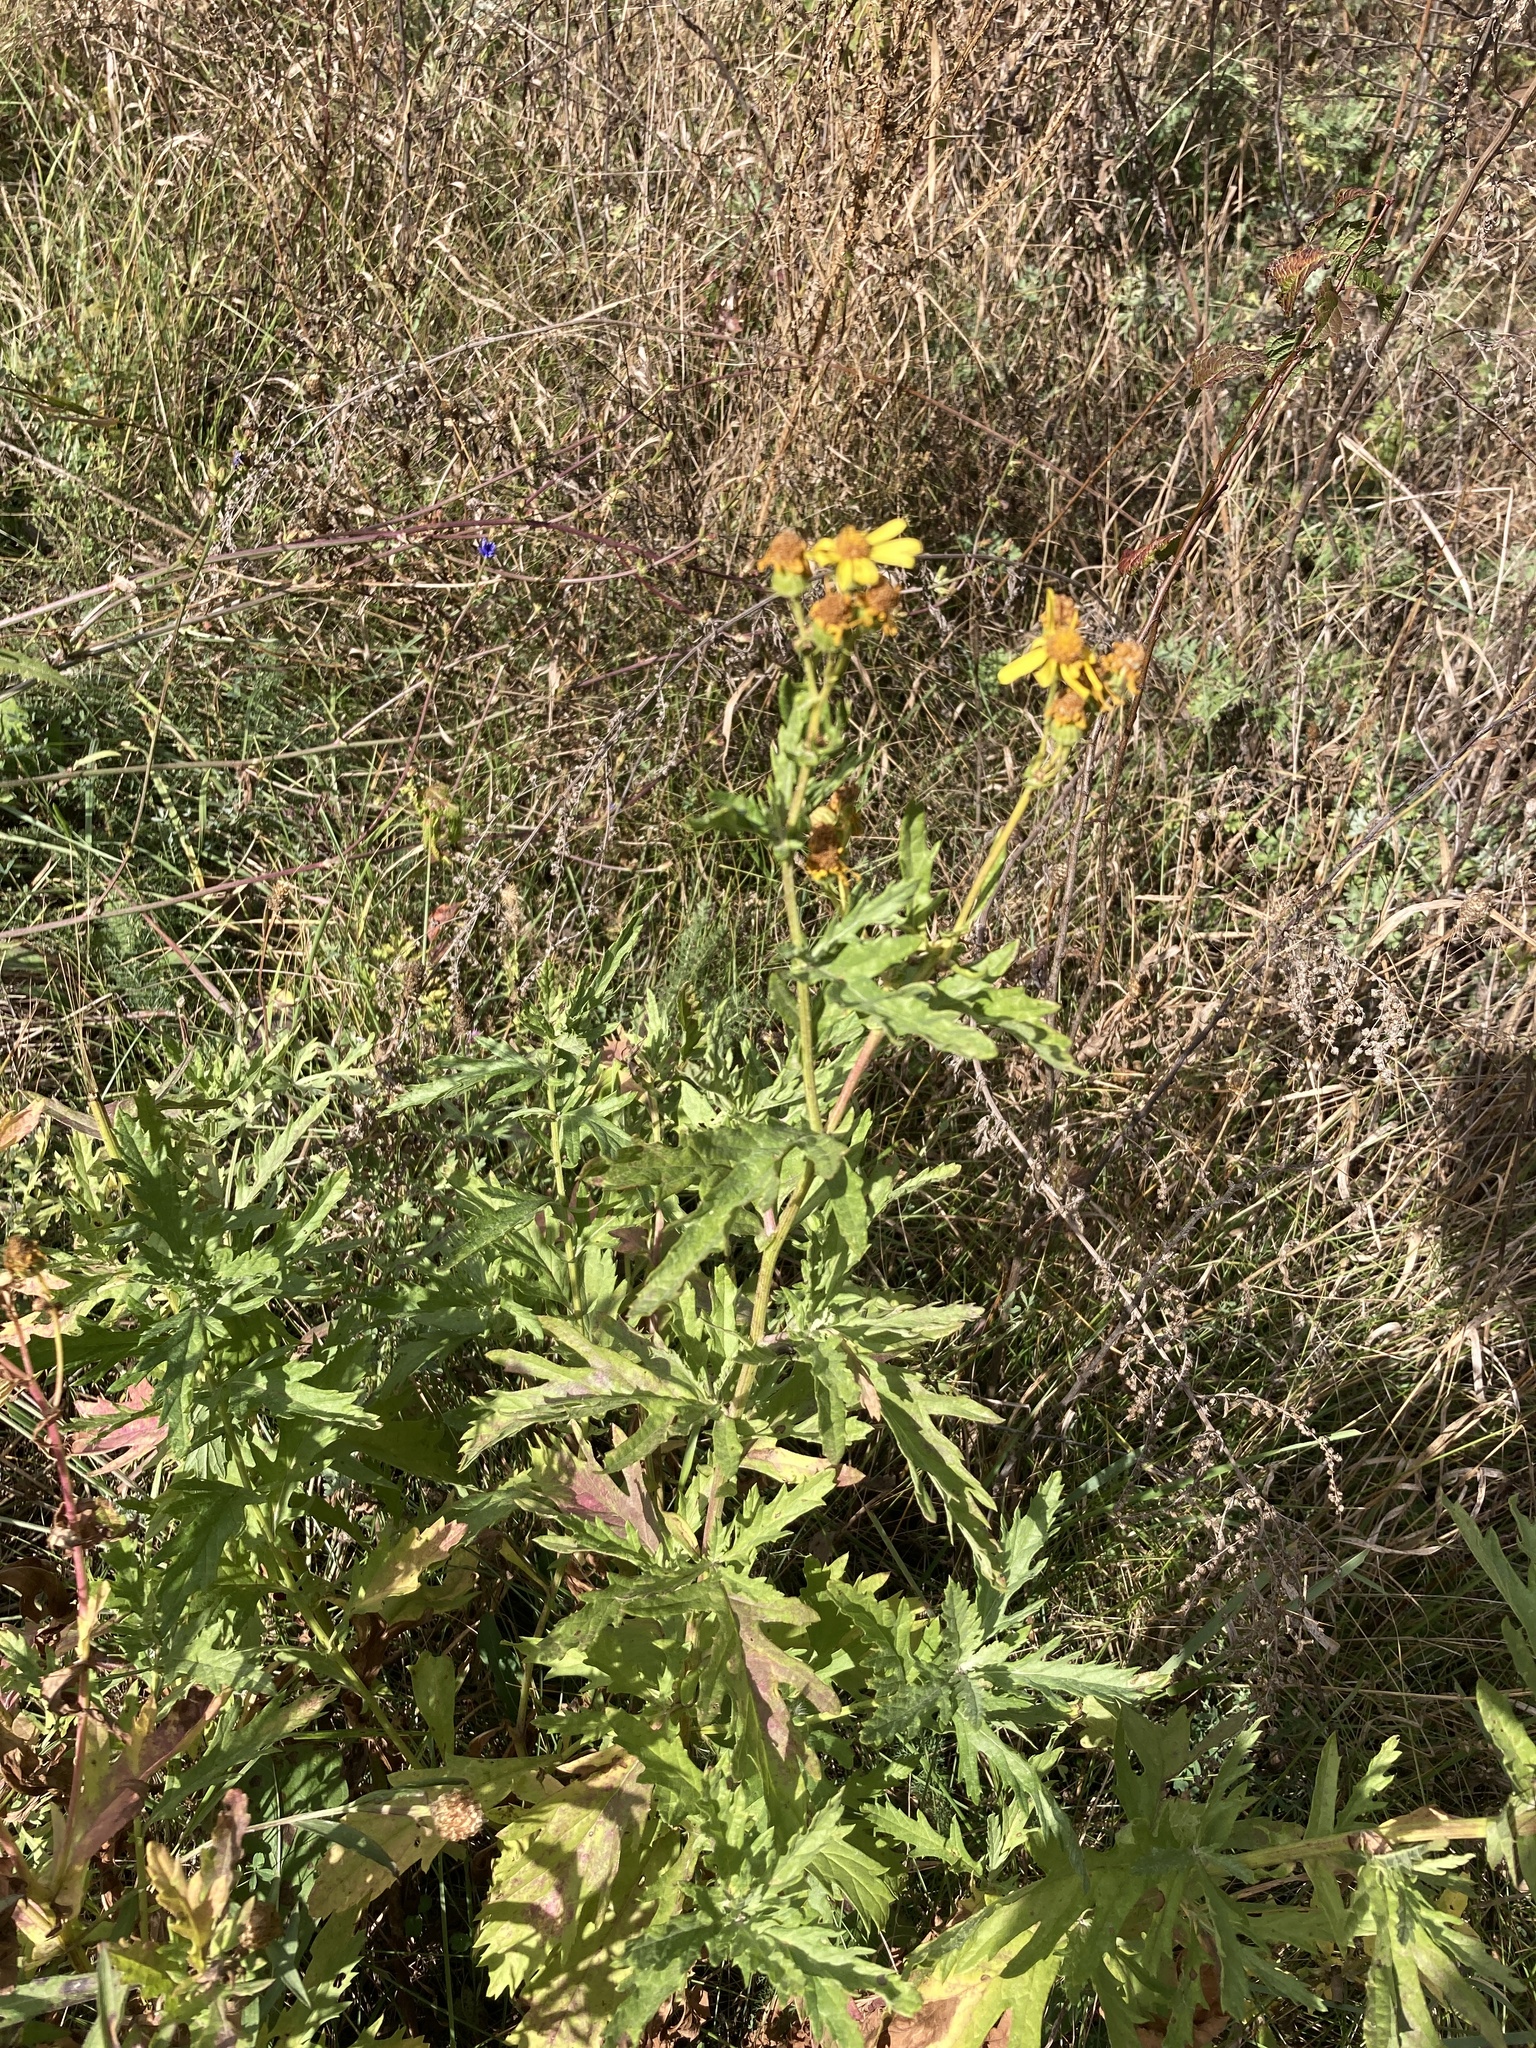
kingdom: Plantae
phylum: Tracheophyta
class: Magnoliopsida
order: Asterales
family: Asteraceae
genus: Jacobaea
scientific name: Jacobaea erucifolia
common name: Hoary ragwort
